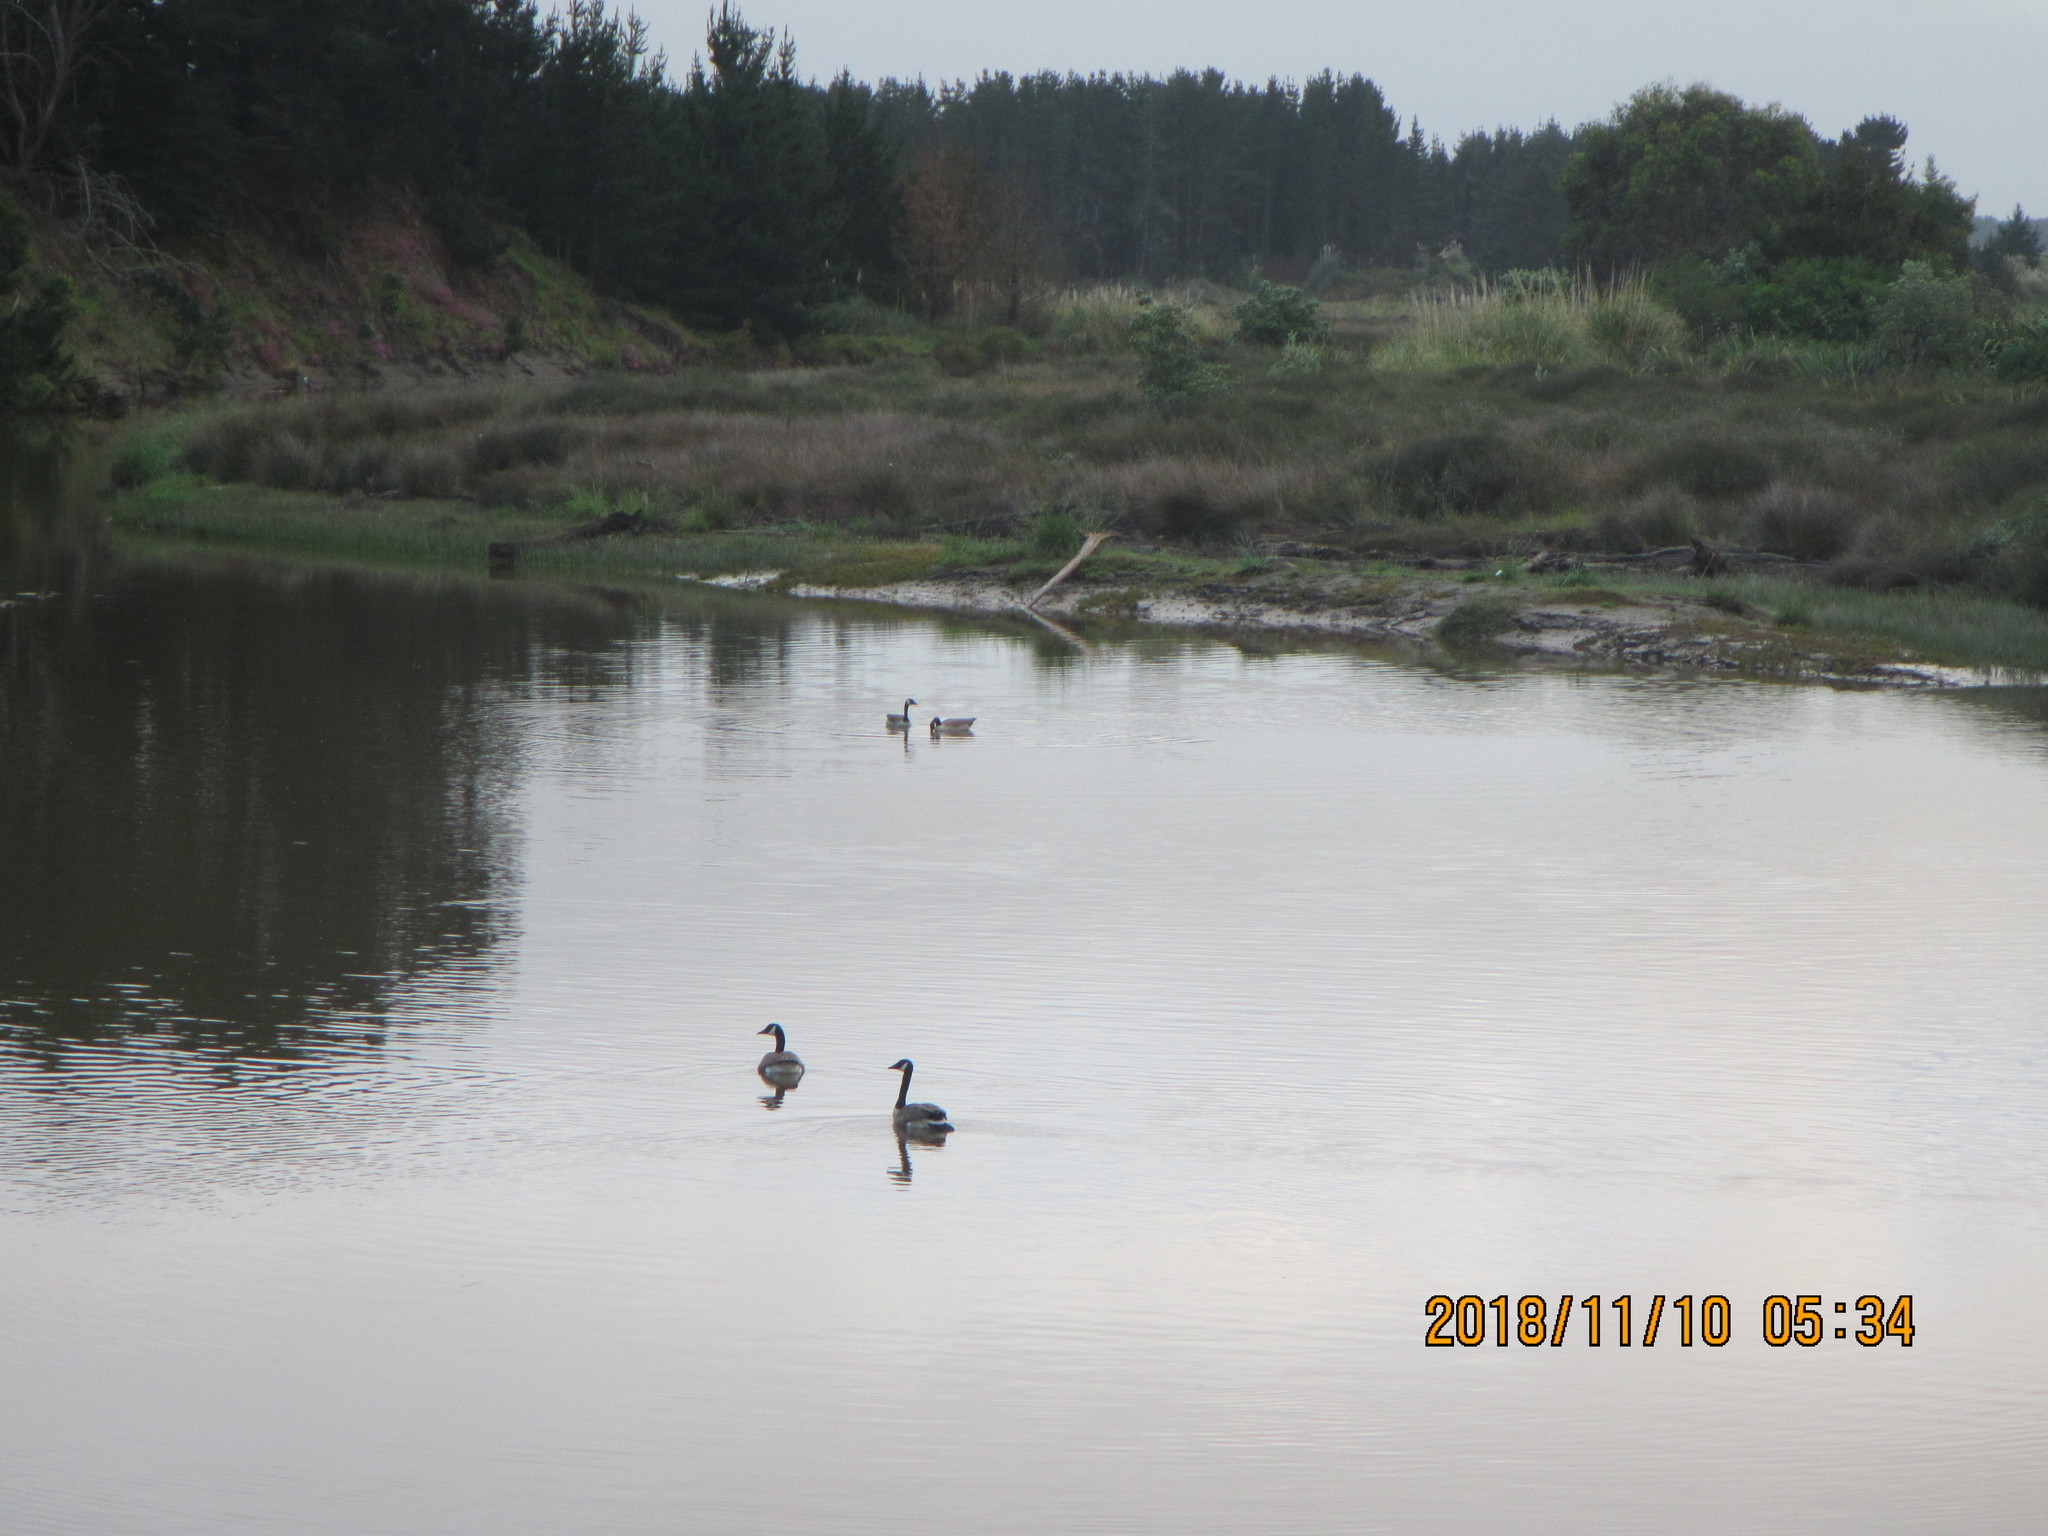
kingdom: Animalia
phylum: Chordata
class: Aves
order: Anseriformes
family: Anatidae
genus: Branta
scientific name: Branta canadensis
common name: Canada goose
